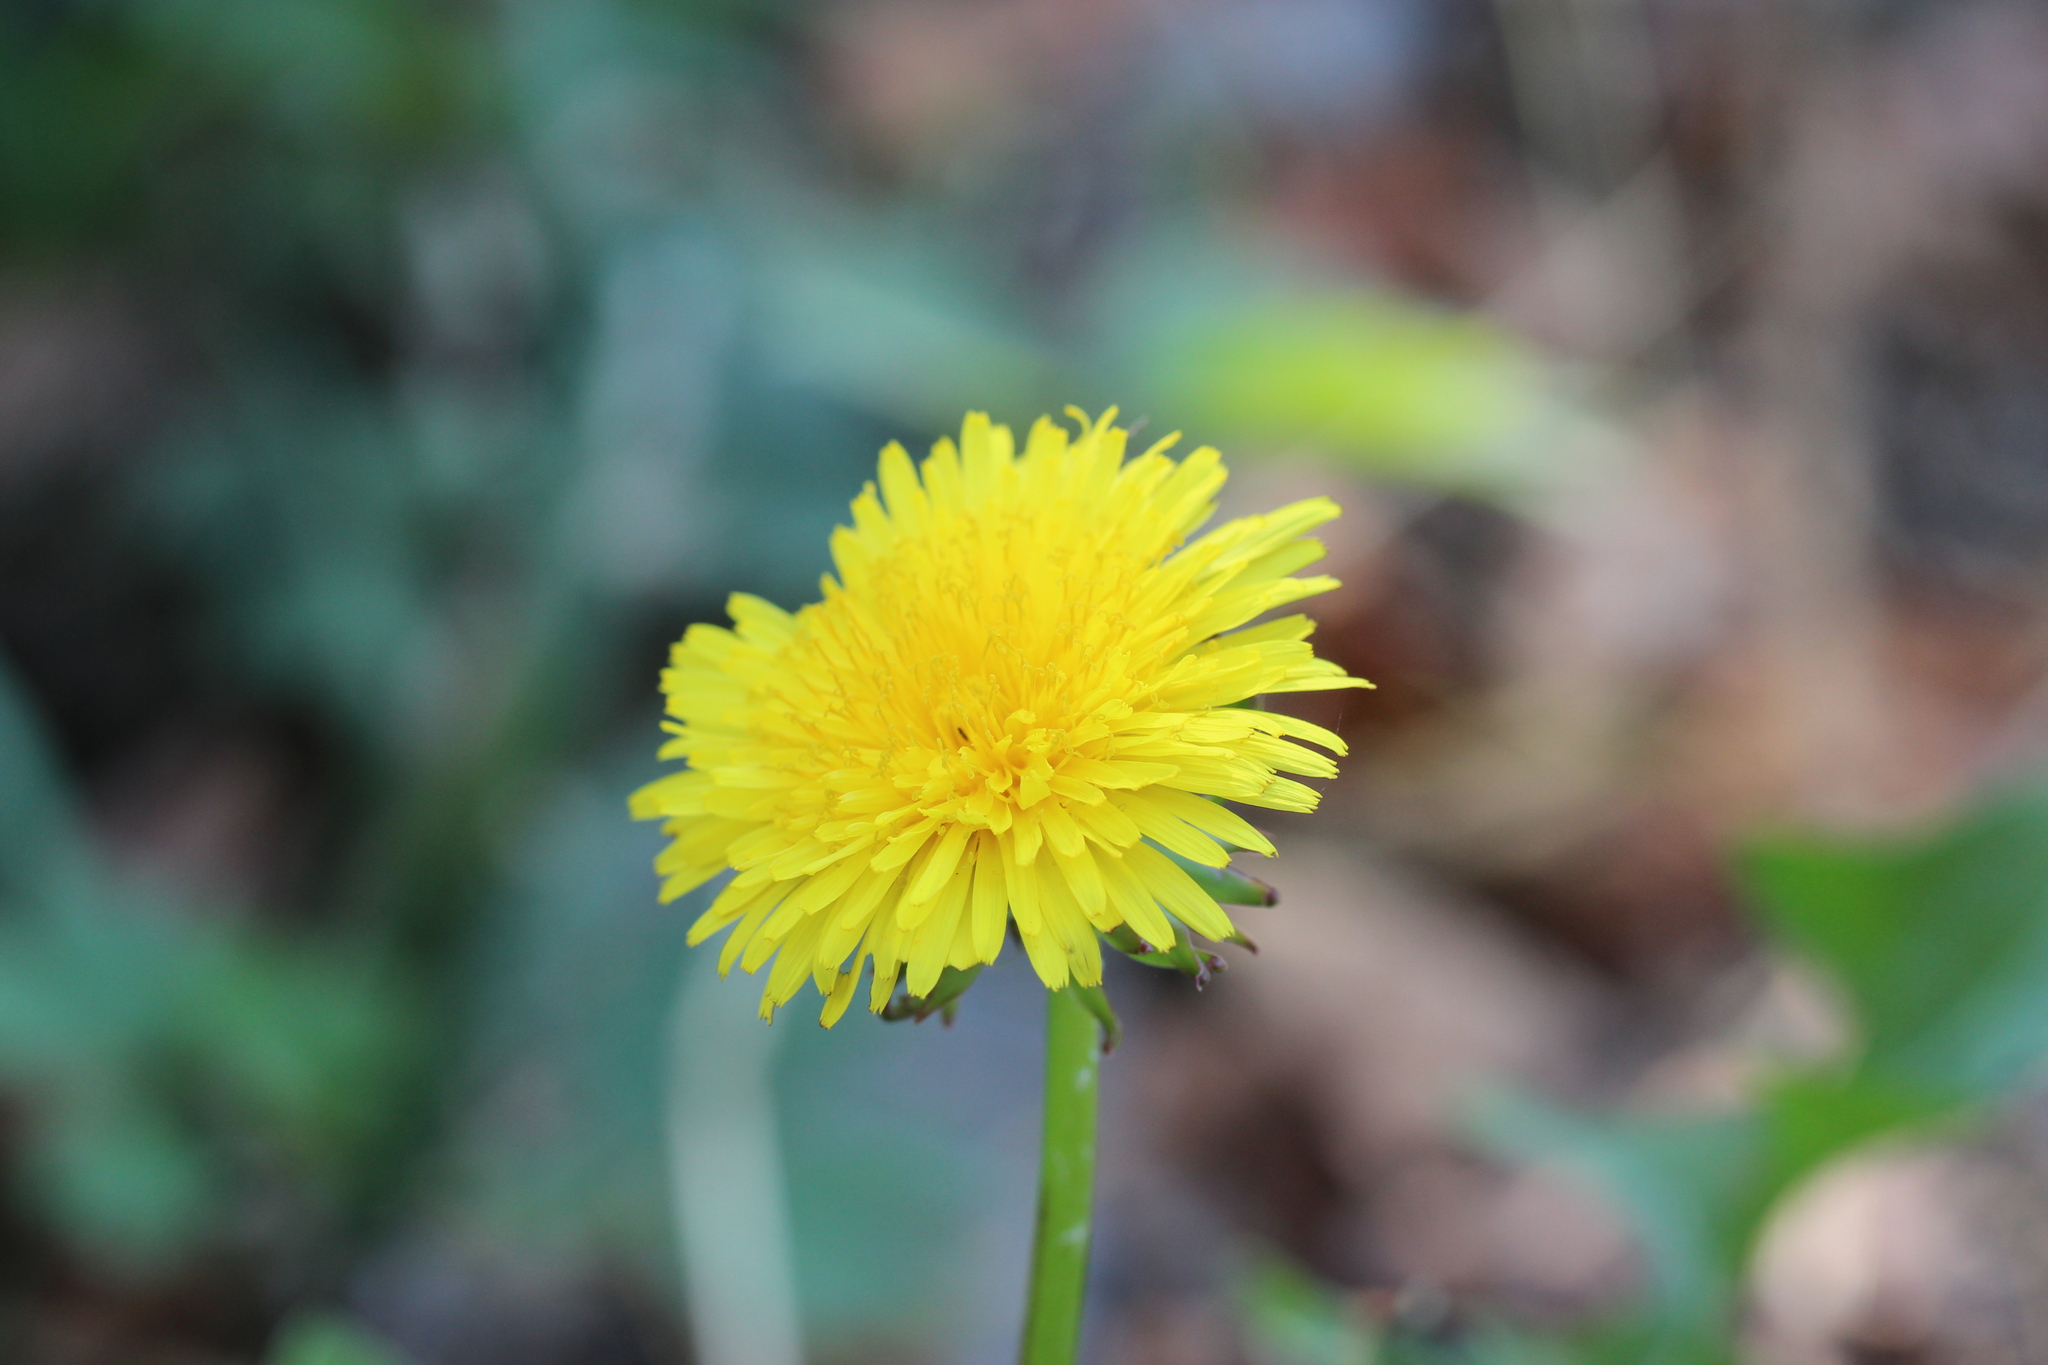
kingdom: Plantae
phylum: Tracheophyta
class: Magnoliopsida
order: Asterales
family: Asteraceae
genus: Taraxacum
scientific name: Taraxacum officinale
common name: Common dandelion
